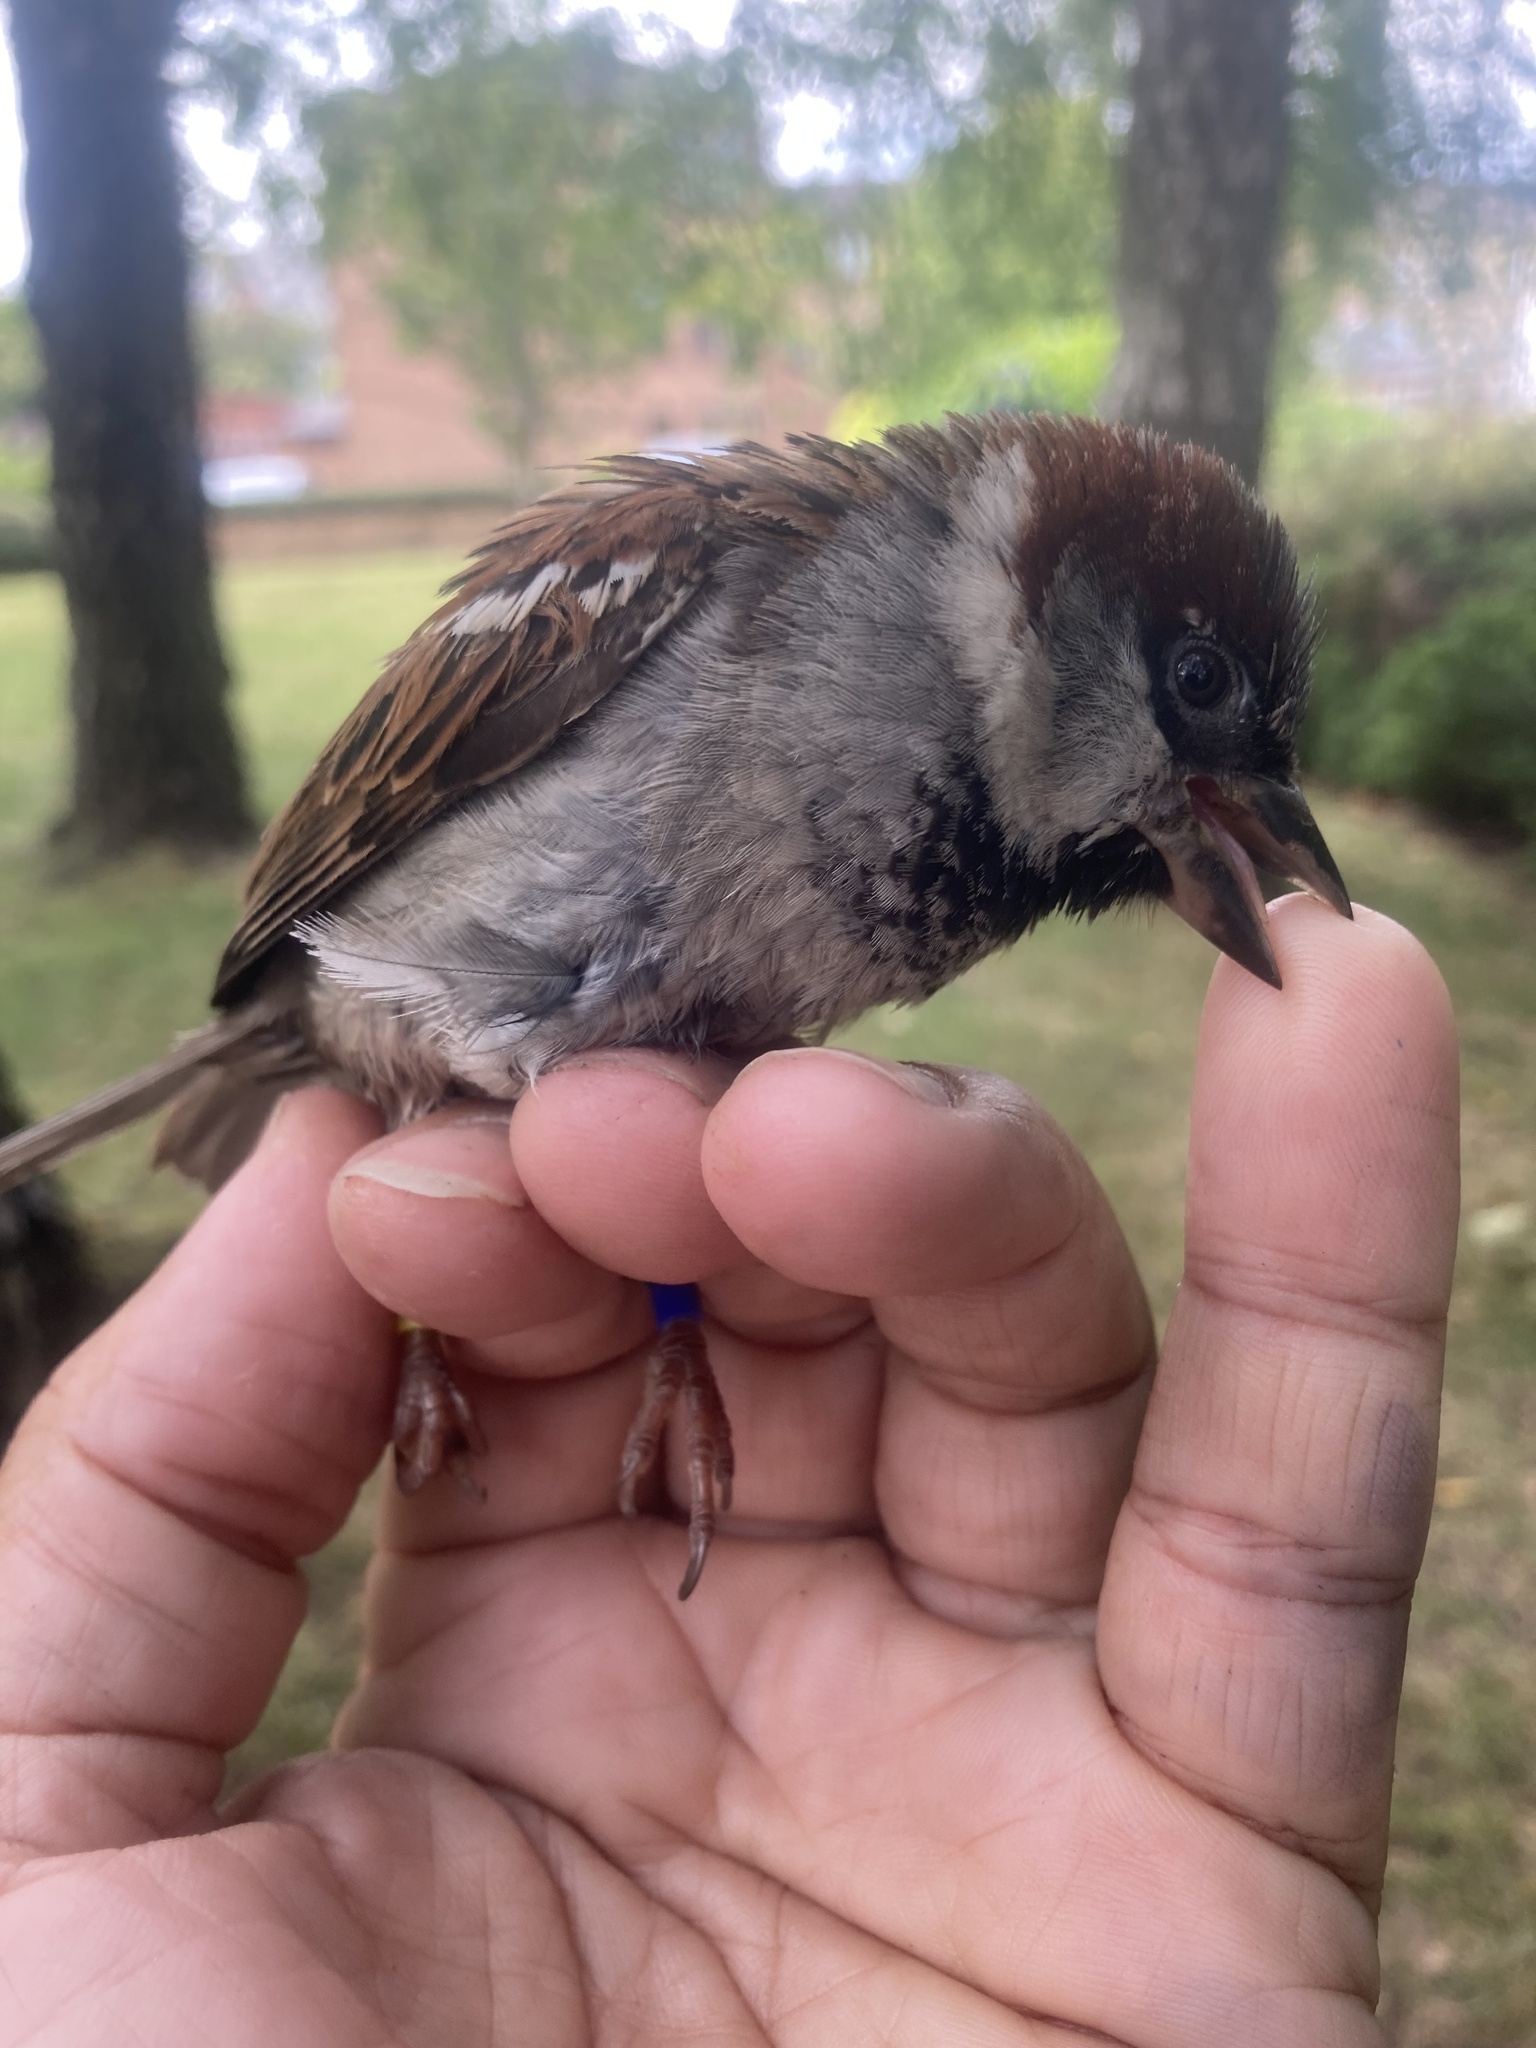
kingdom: Animalia
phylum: Chordata
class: Aves
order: Passeriformes
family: Passeridae
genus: Passer
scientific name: Passer domesticus
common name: House sparrow
